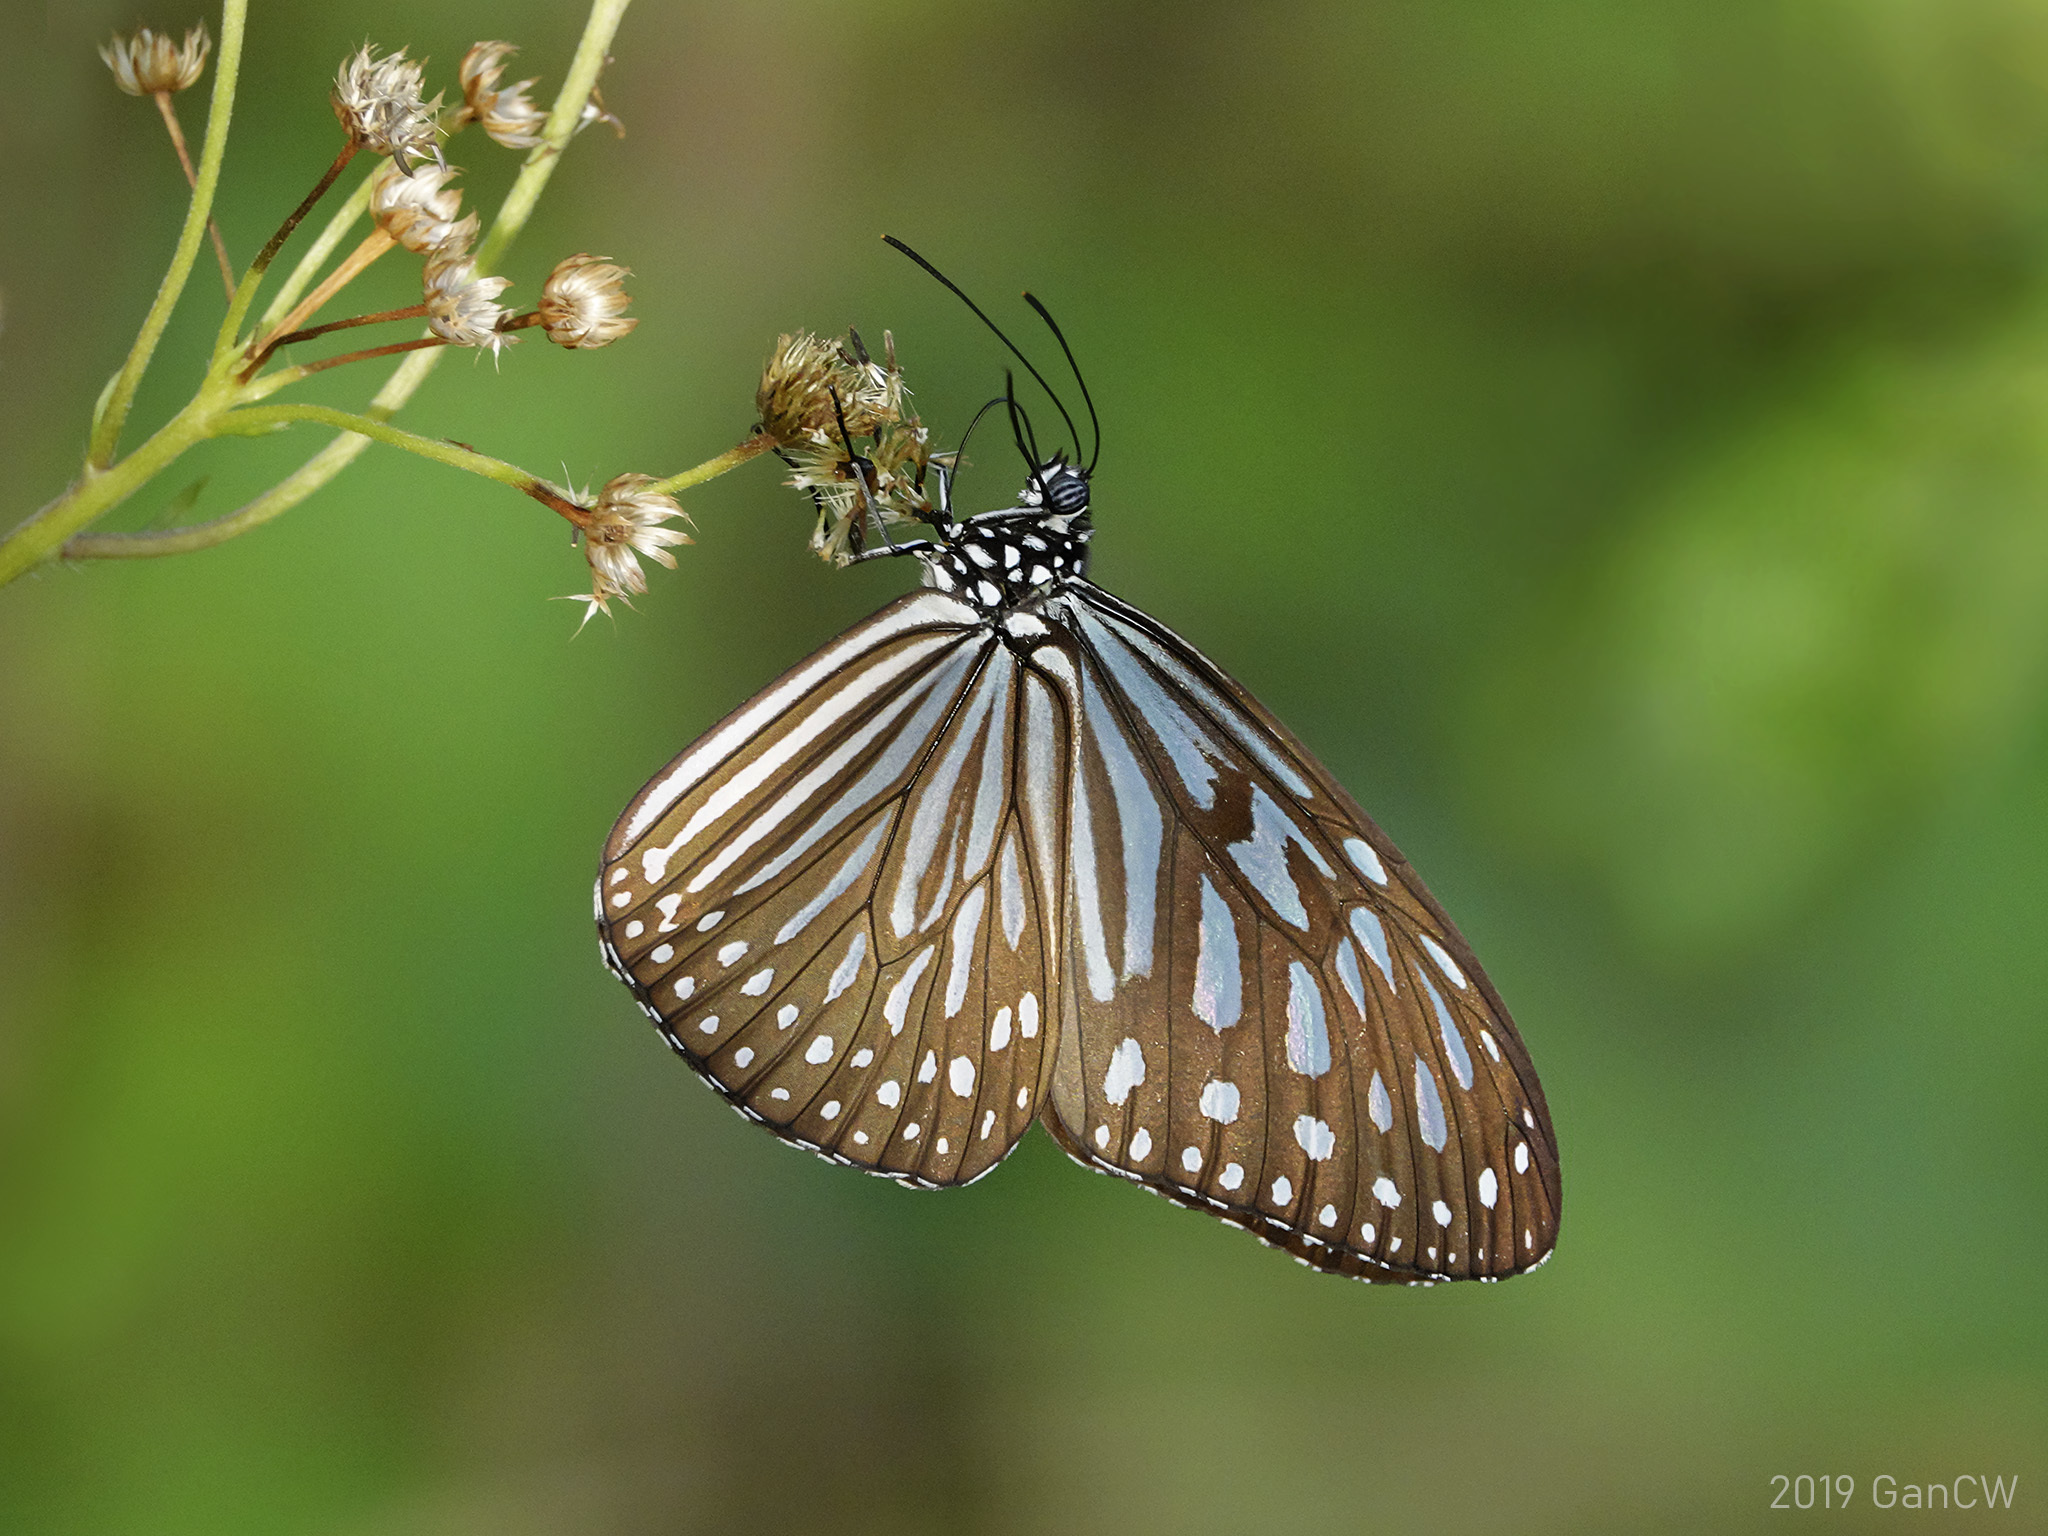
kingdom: Animalia
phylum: Arthropoda
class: Insecta
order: Lepidoptera
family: Nymphalidae
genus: Ideopsis
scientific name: Ideopsis vulgaris
